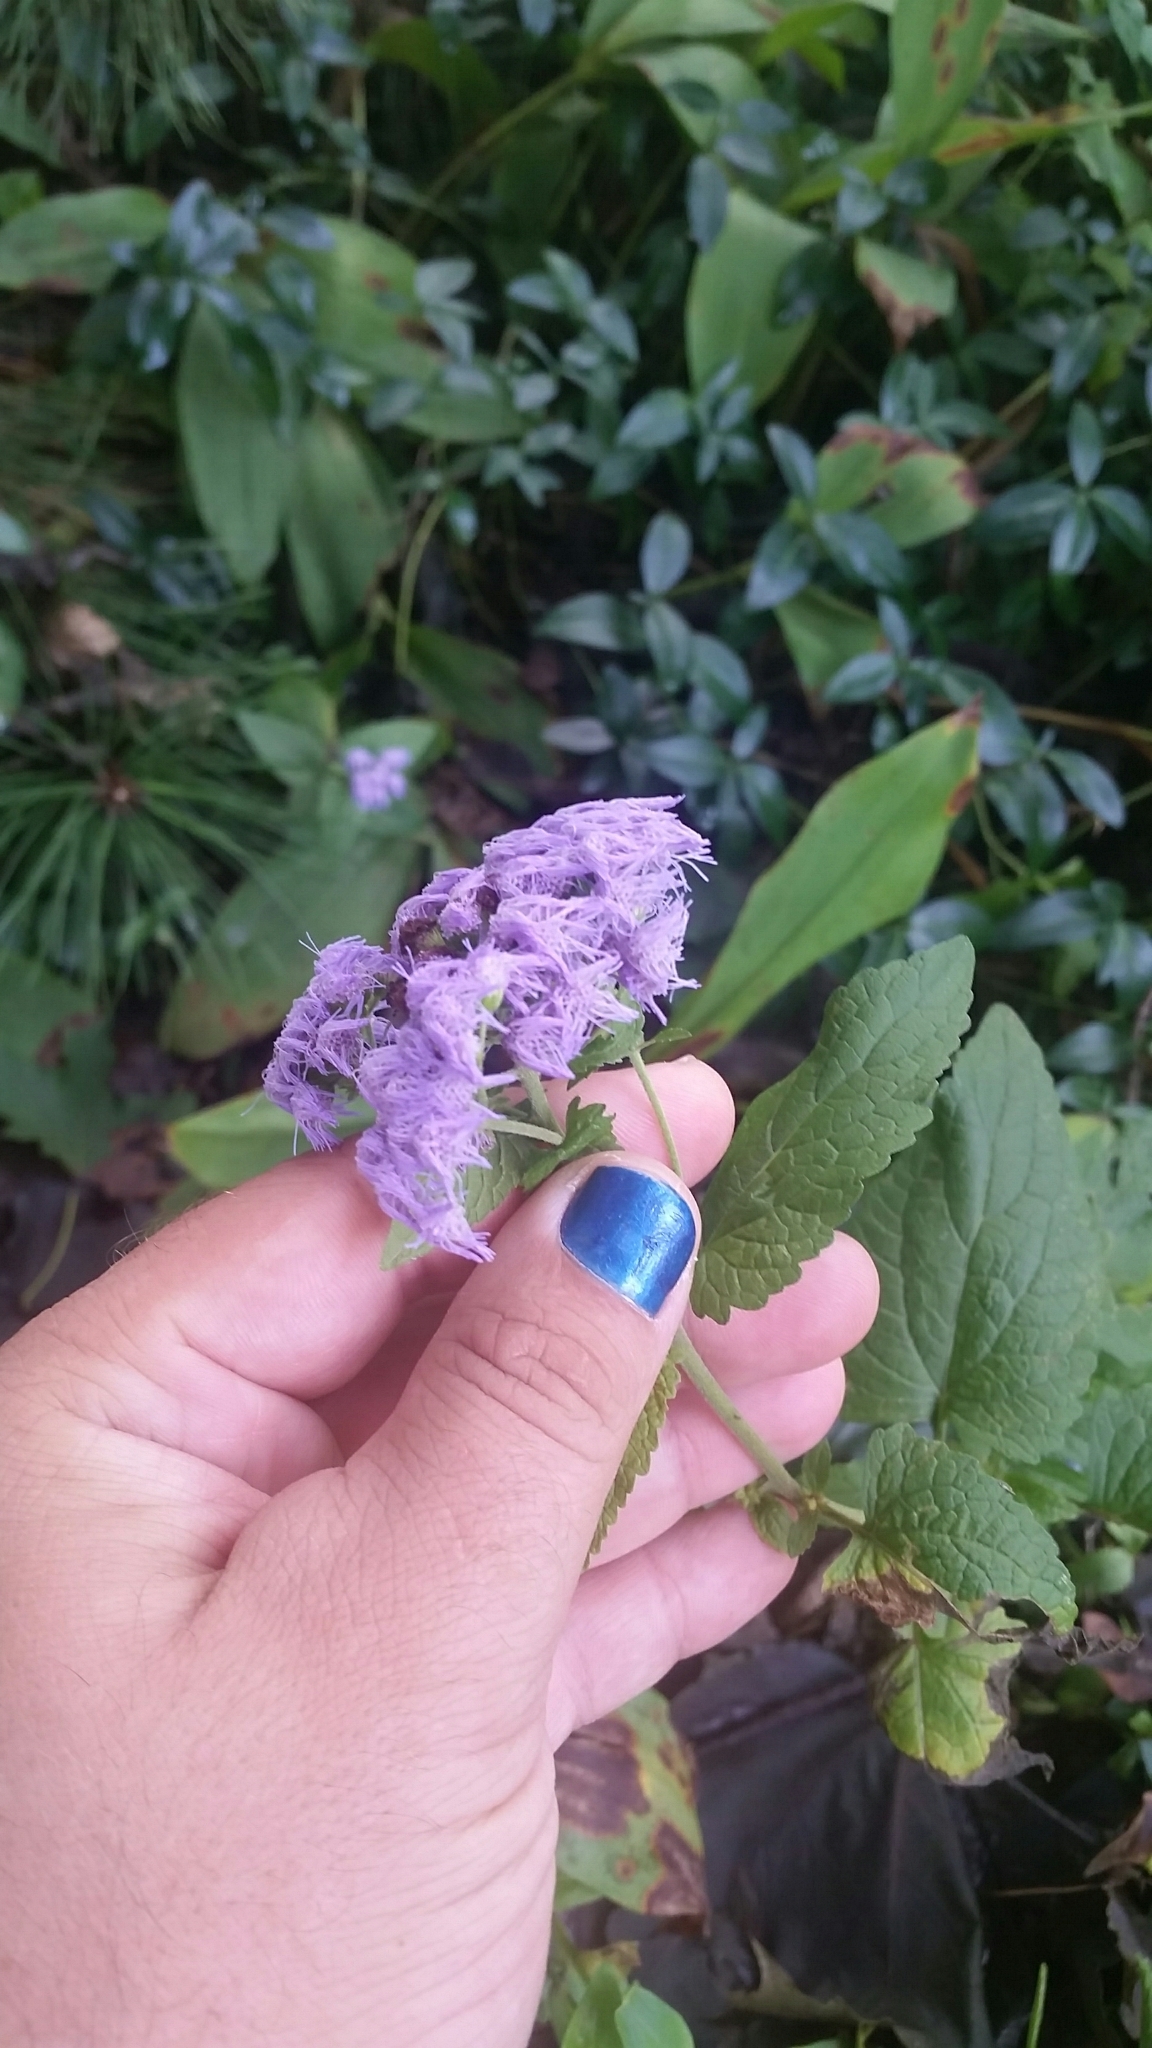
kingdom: Plantae
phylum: Tracheophyta
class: Magnoliopsida
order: Asterales
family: Asteraceae
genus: Conoclinium
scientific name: Conoclinium coelestinum
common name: Blue mistflower
